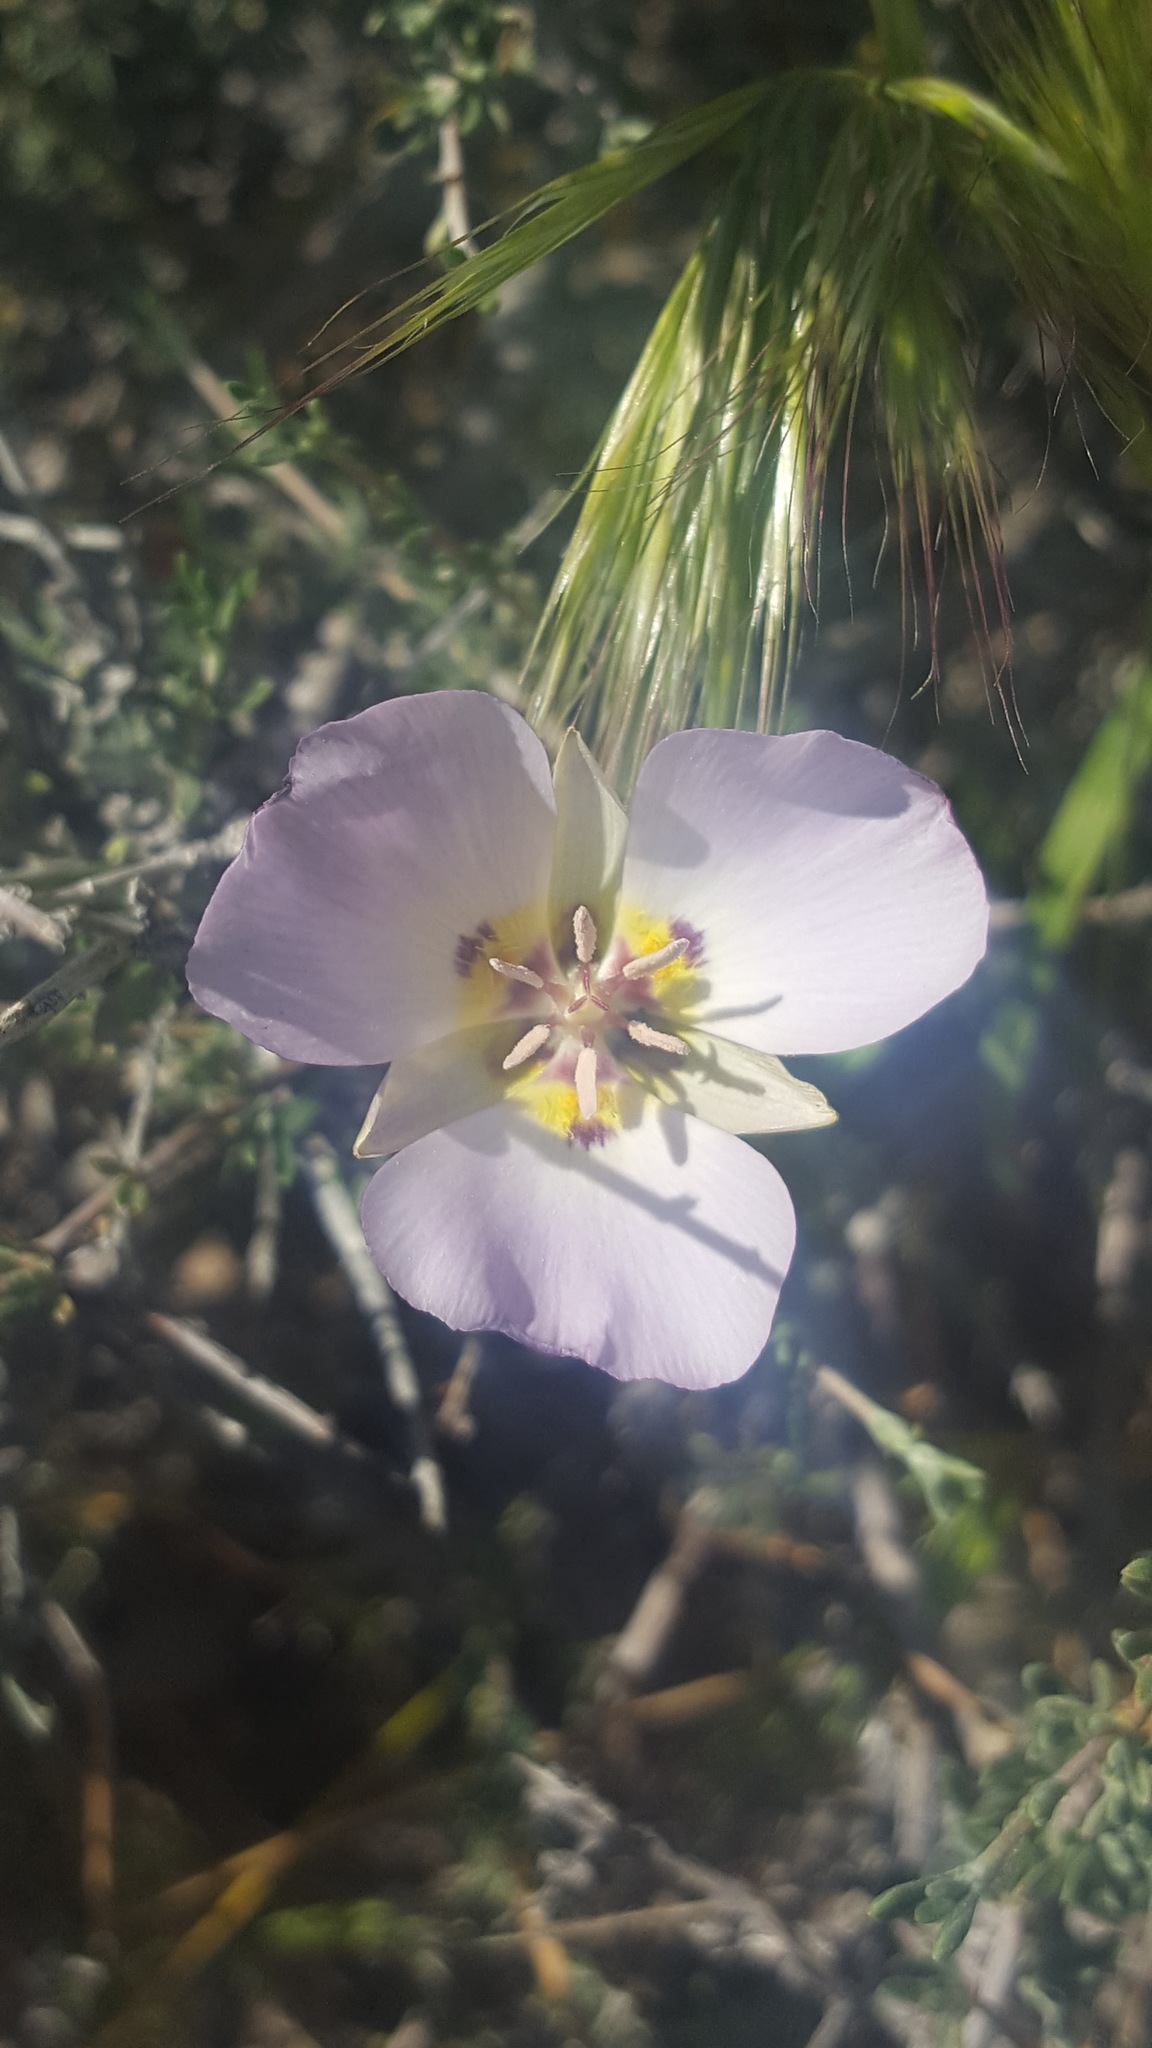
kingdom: Plantae
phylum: Tracheophyta
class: Liliopsida
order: Liliales
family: Liliaceae
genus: Calochortus
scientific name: Calochortus flexuosus
